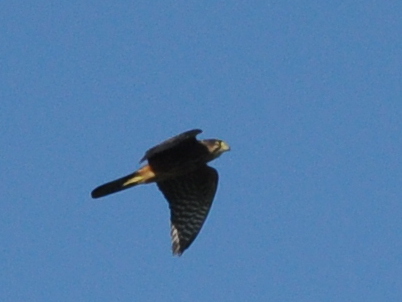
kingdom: Animalia
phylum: Chordata
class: Aves
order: Falconiformes
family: Falconidae
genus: Falco
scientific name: Falco novaeseelandiae
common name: New zealand falcon
